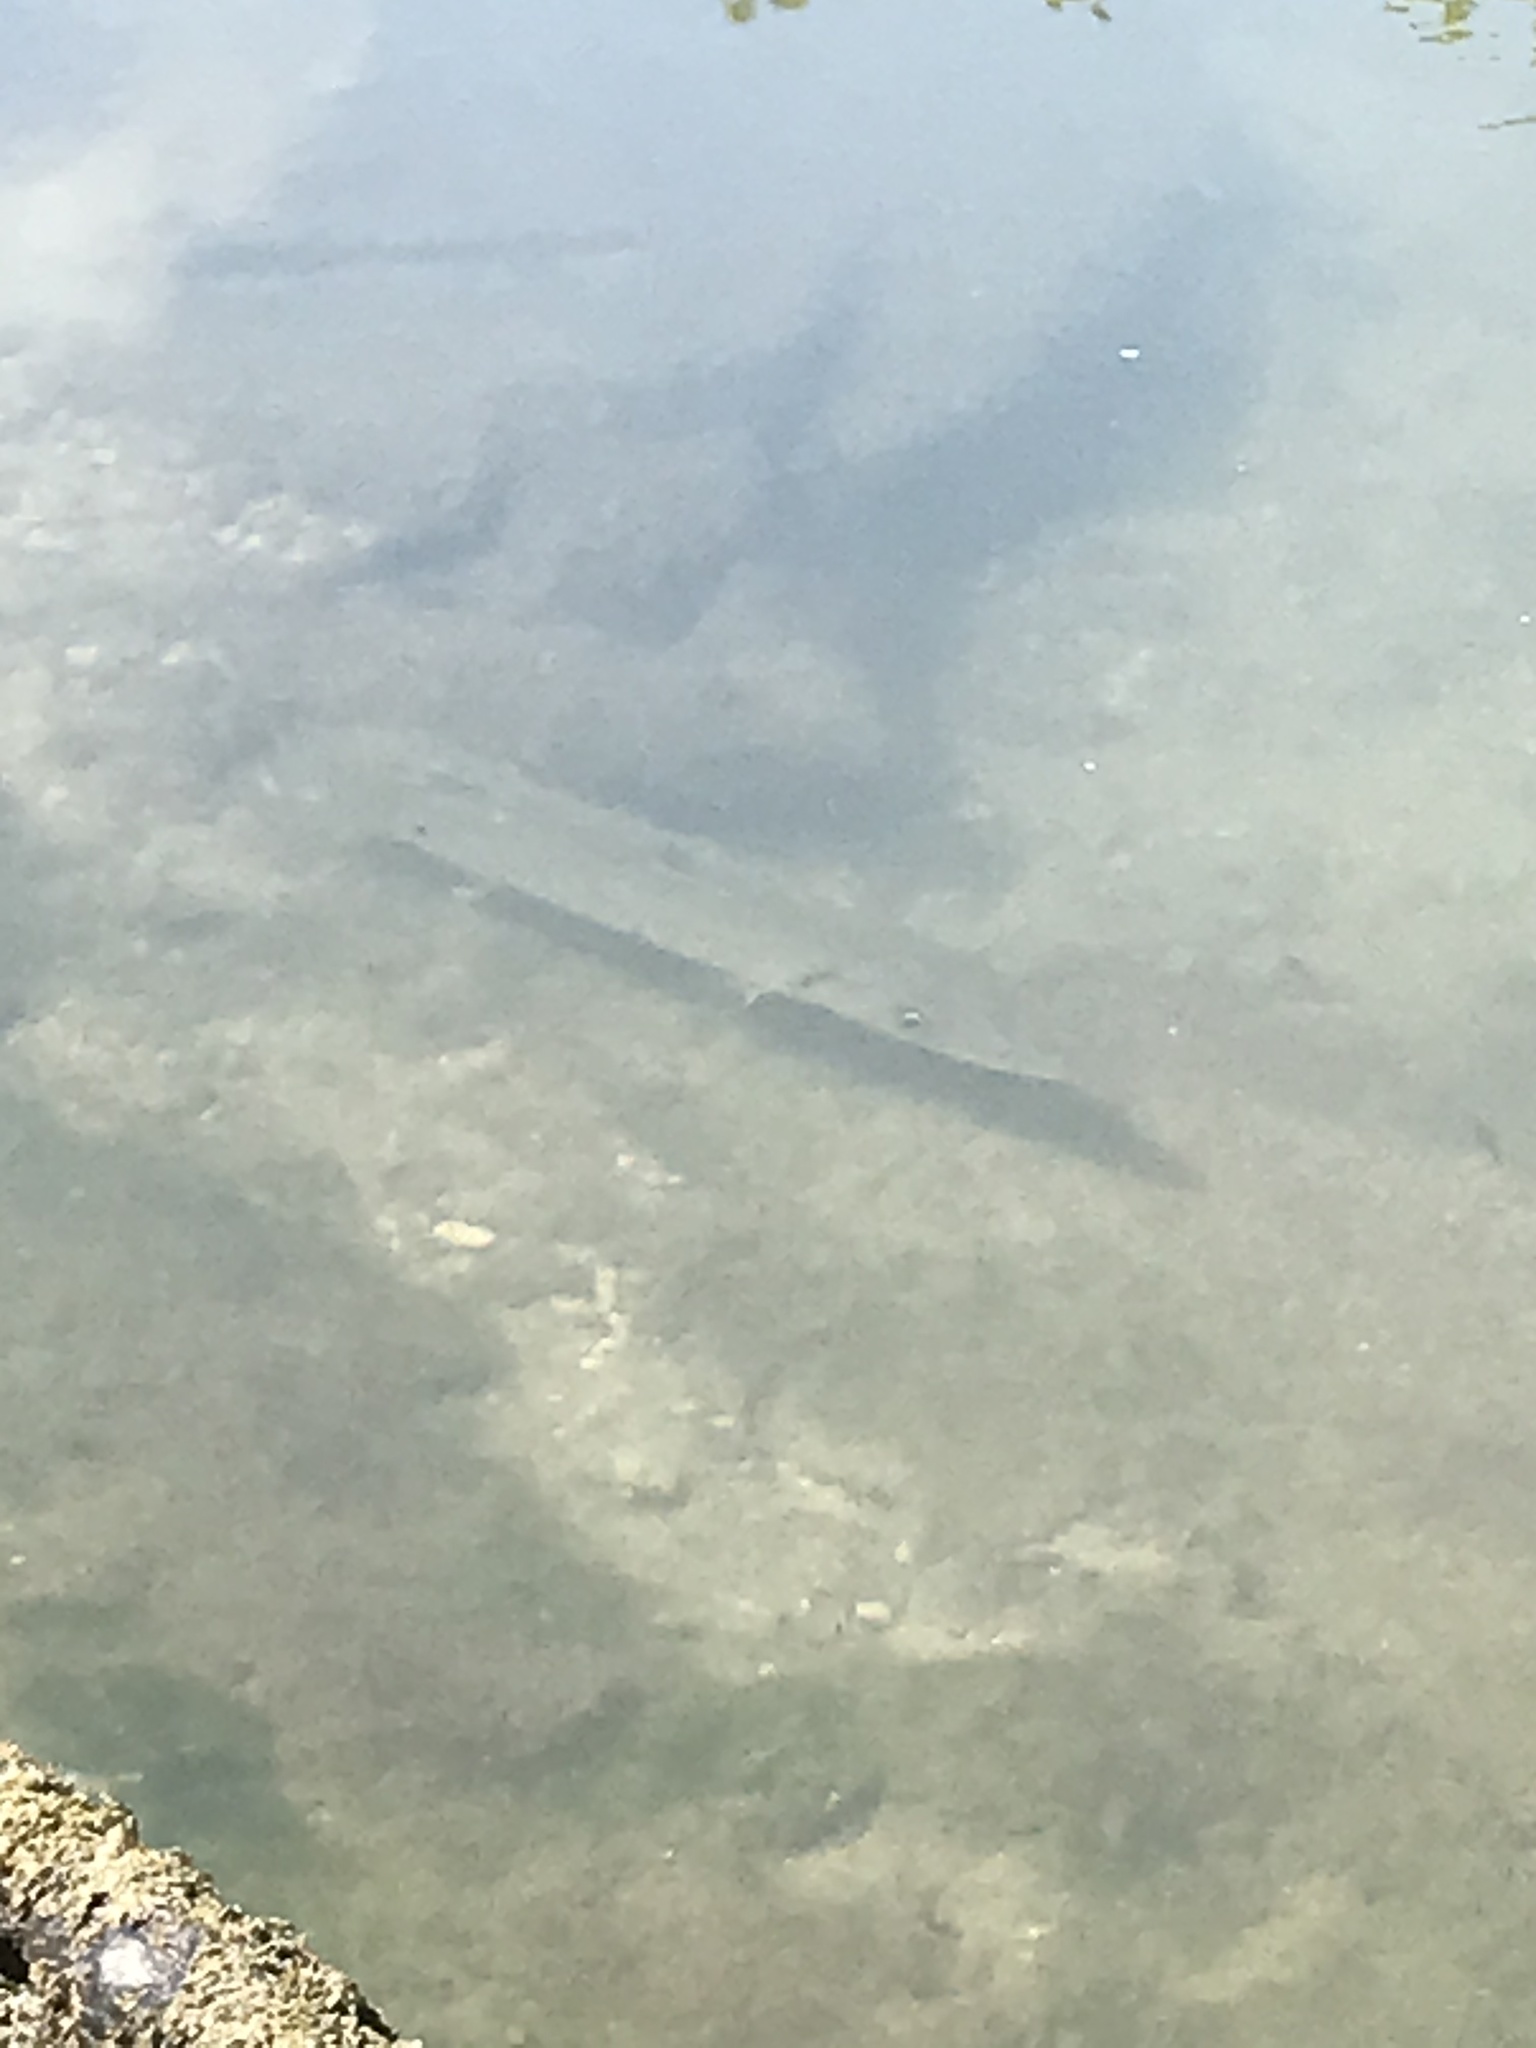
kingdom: Animalia
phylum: Chordata
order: Perciformes
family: Sphyraenidae
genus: Sphyraena
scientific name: Sphyraena barracuda
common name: Great barracuda
